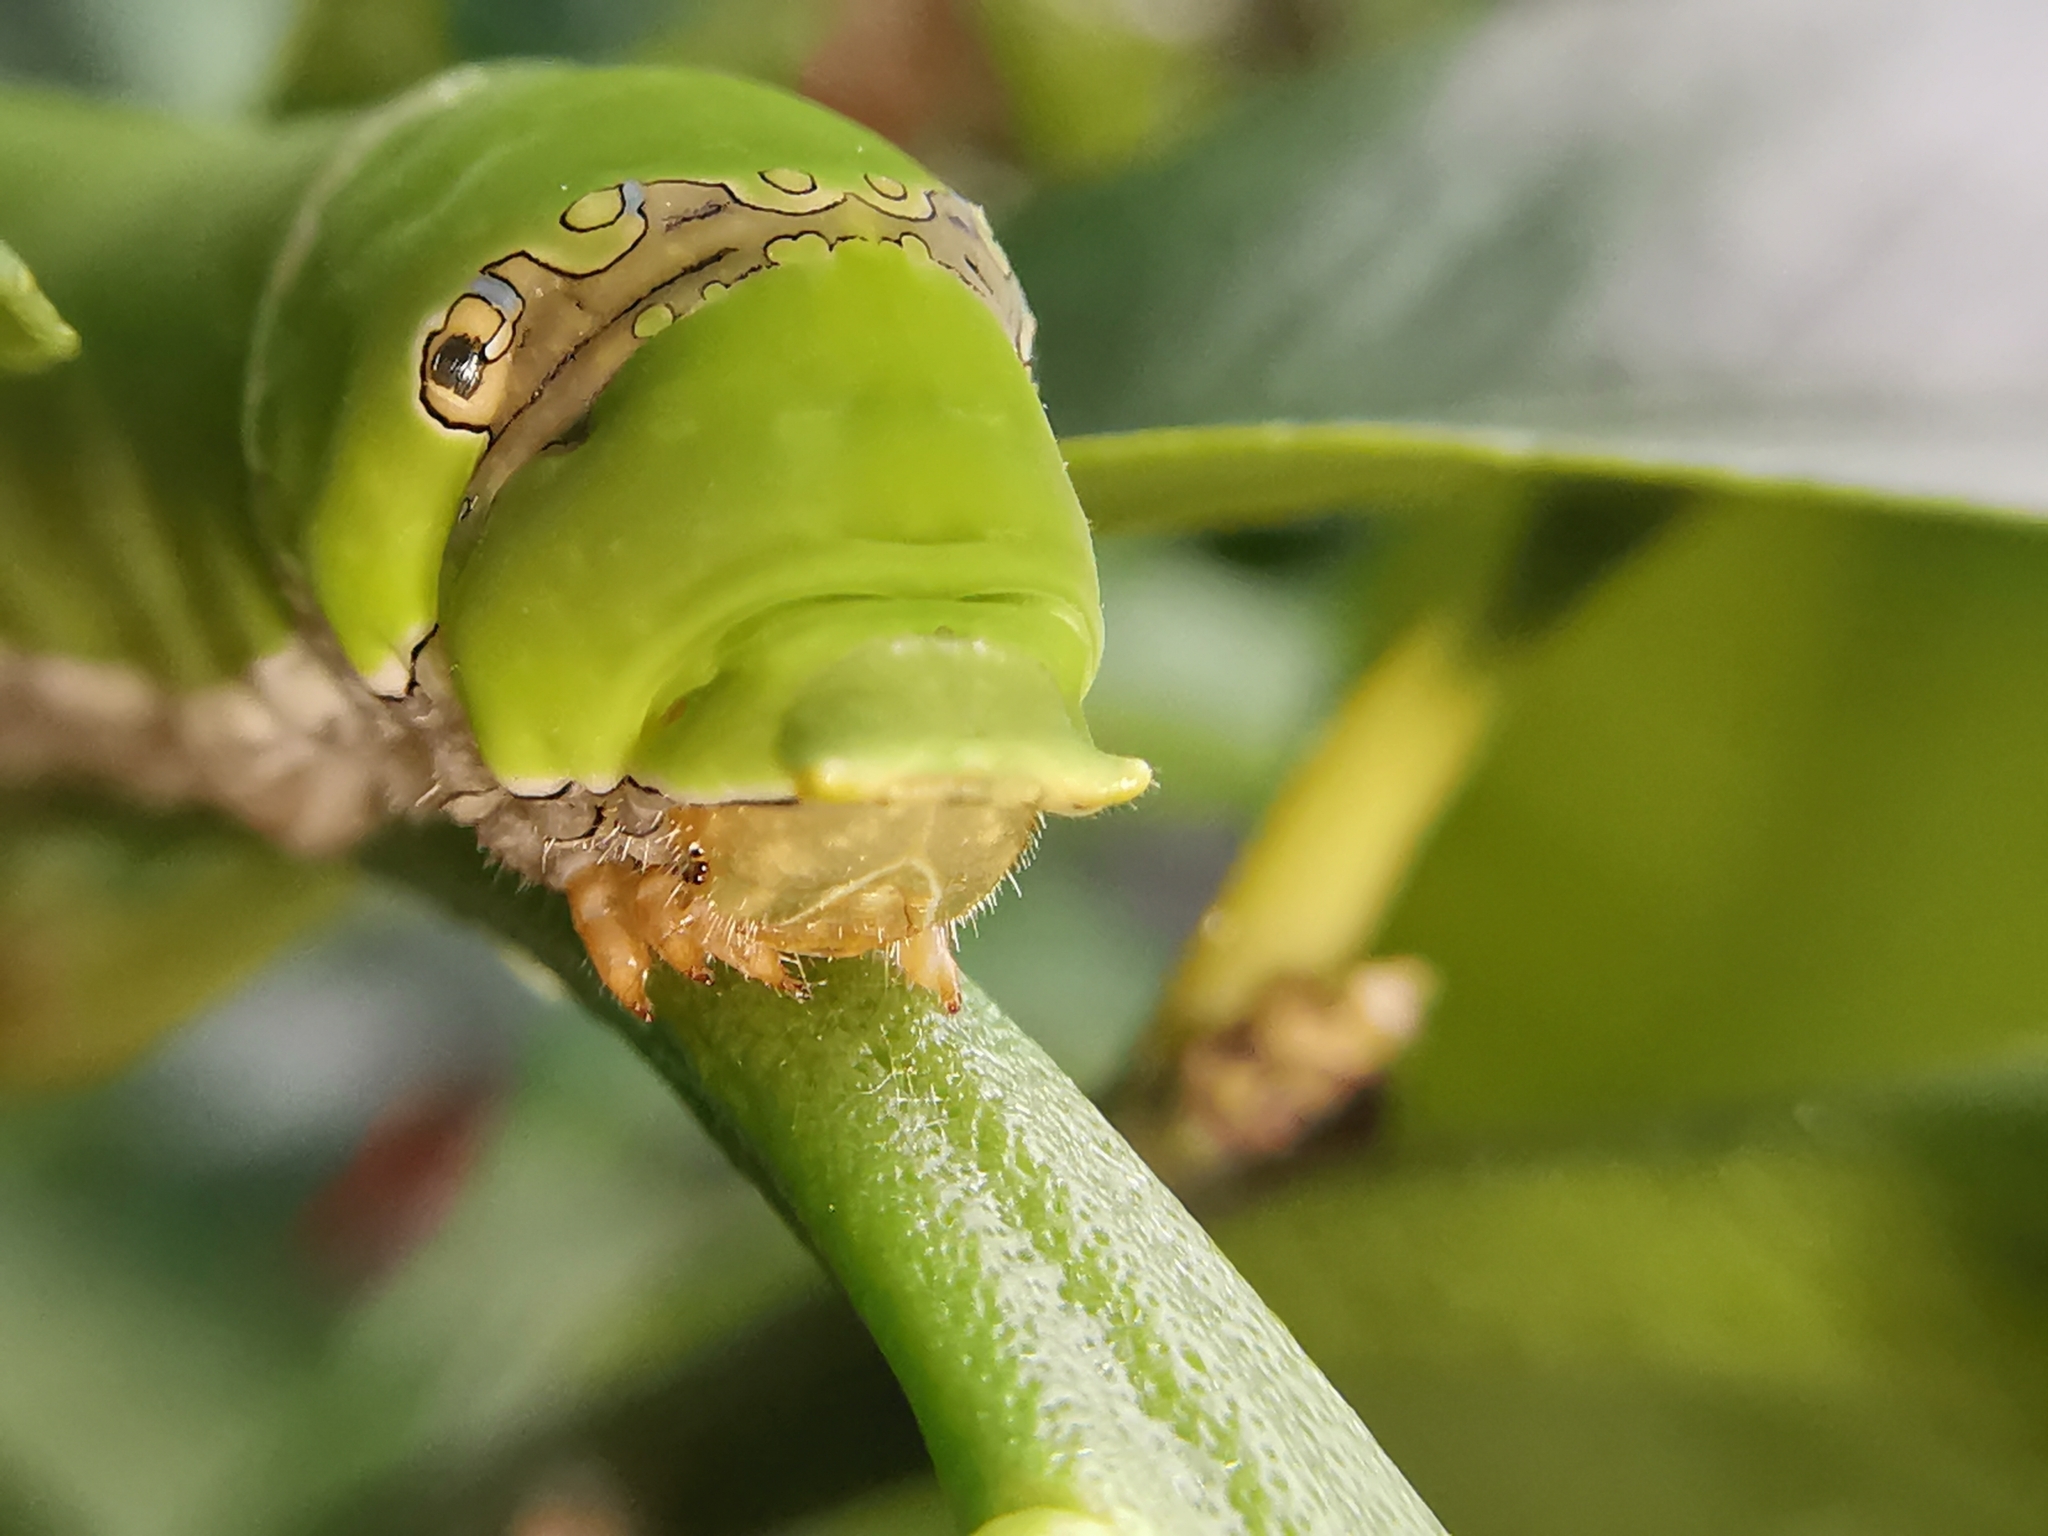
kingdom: Animalia
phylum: Arthropoda
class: Insecta
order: Lepidoptera
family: Papilionidae
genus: Papilio
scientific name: Papilio demoleus
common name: Lime butterfly
